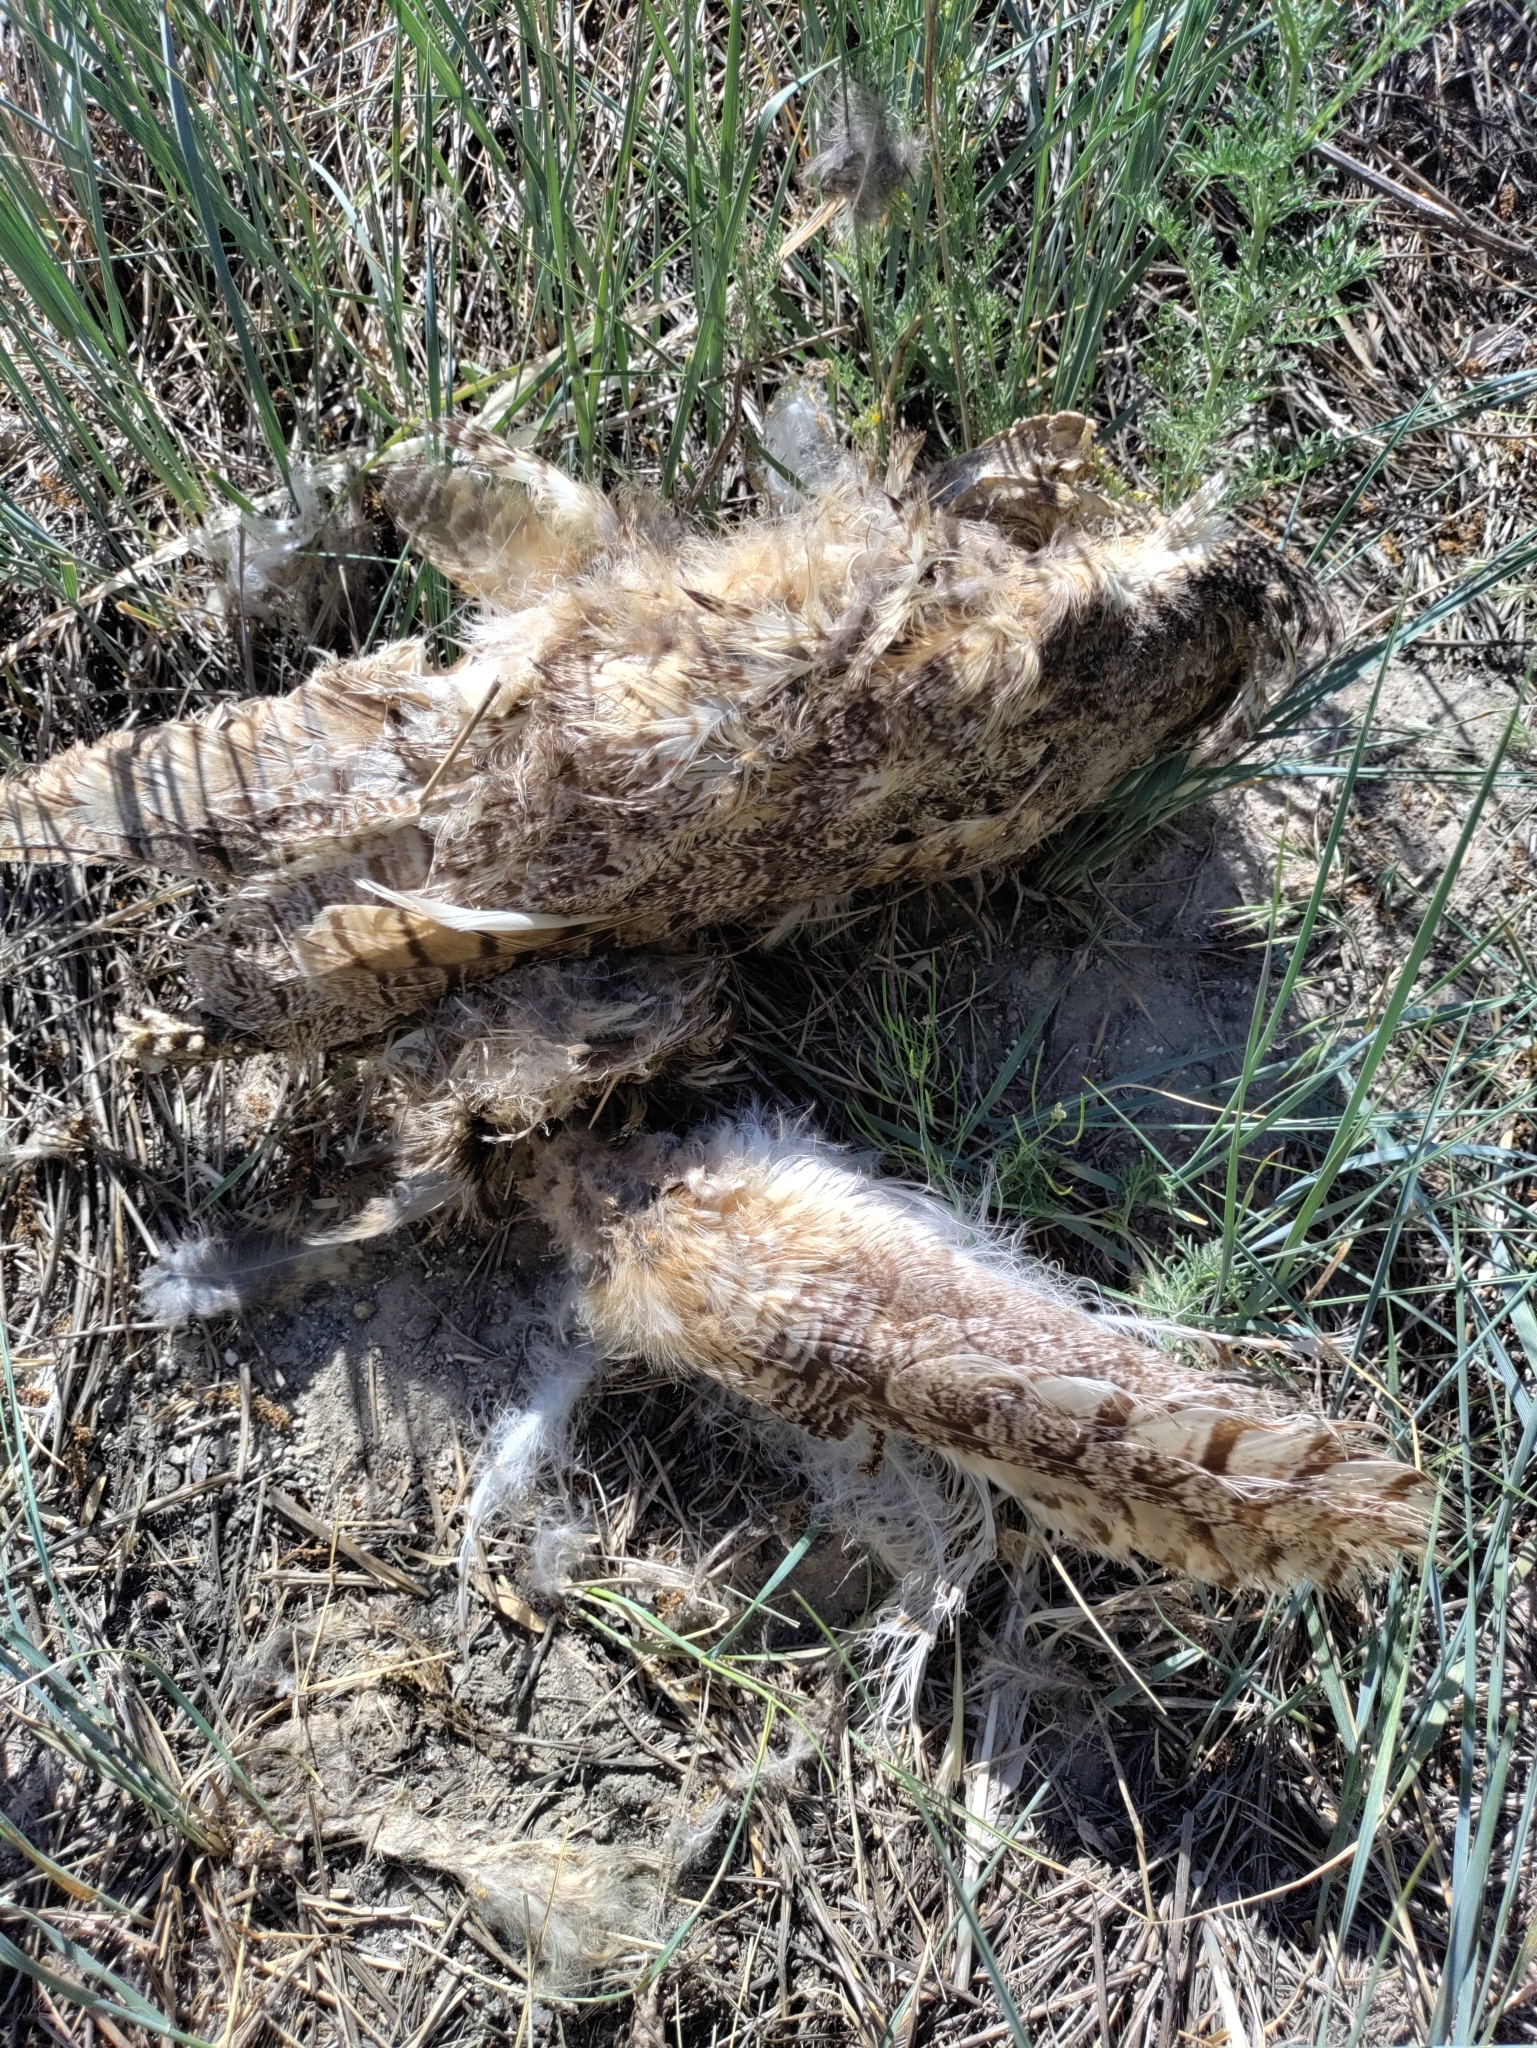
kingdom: Animalia
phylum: Chordata
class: Aves
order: Strigiformes
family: Strigidae
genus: Bubo
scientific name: Bubo virginianus
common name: Great horned owl
